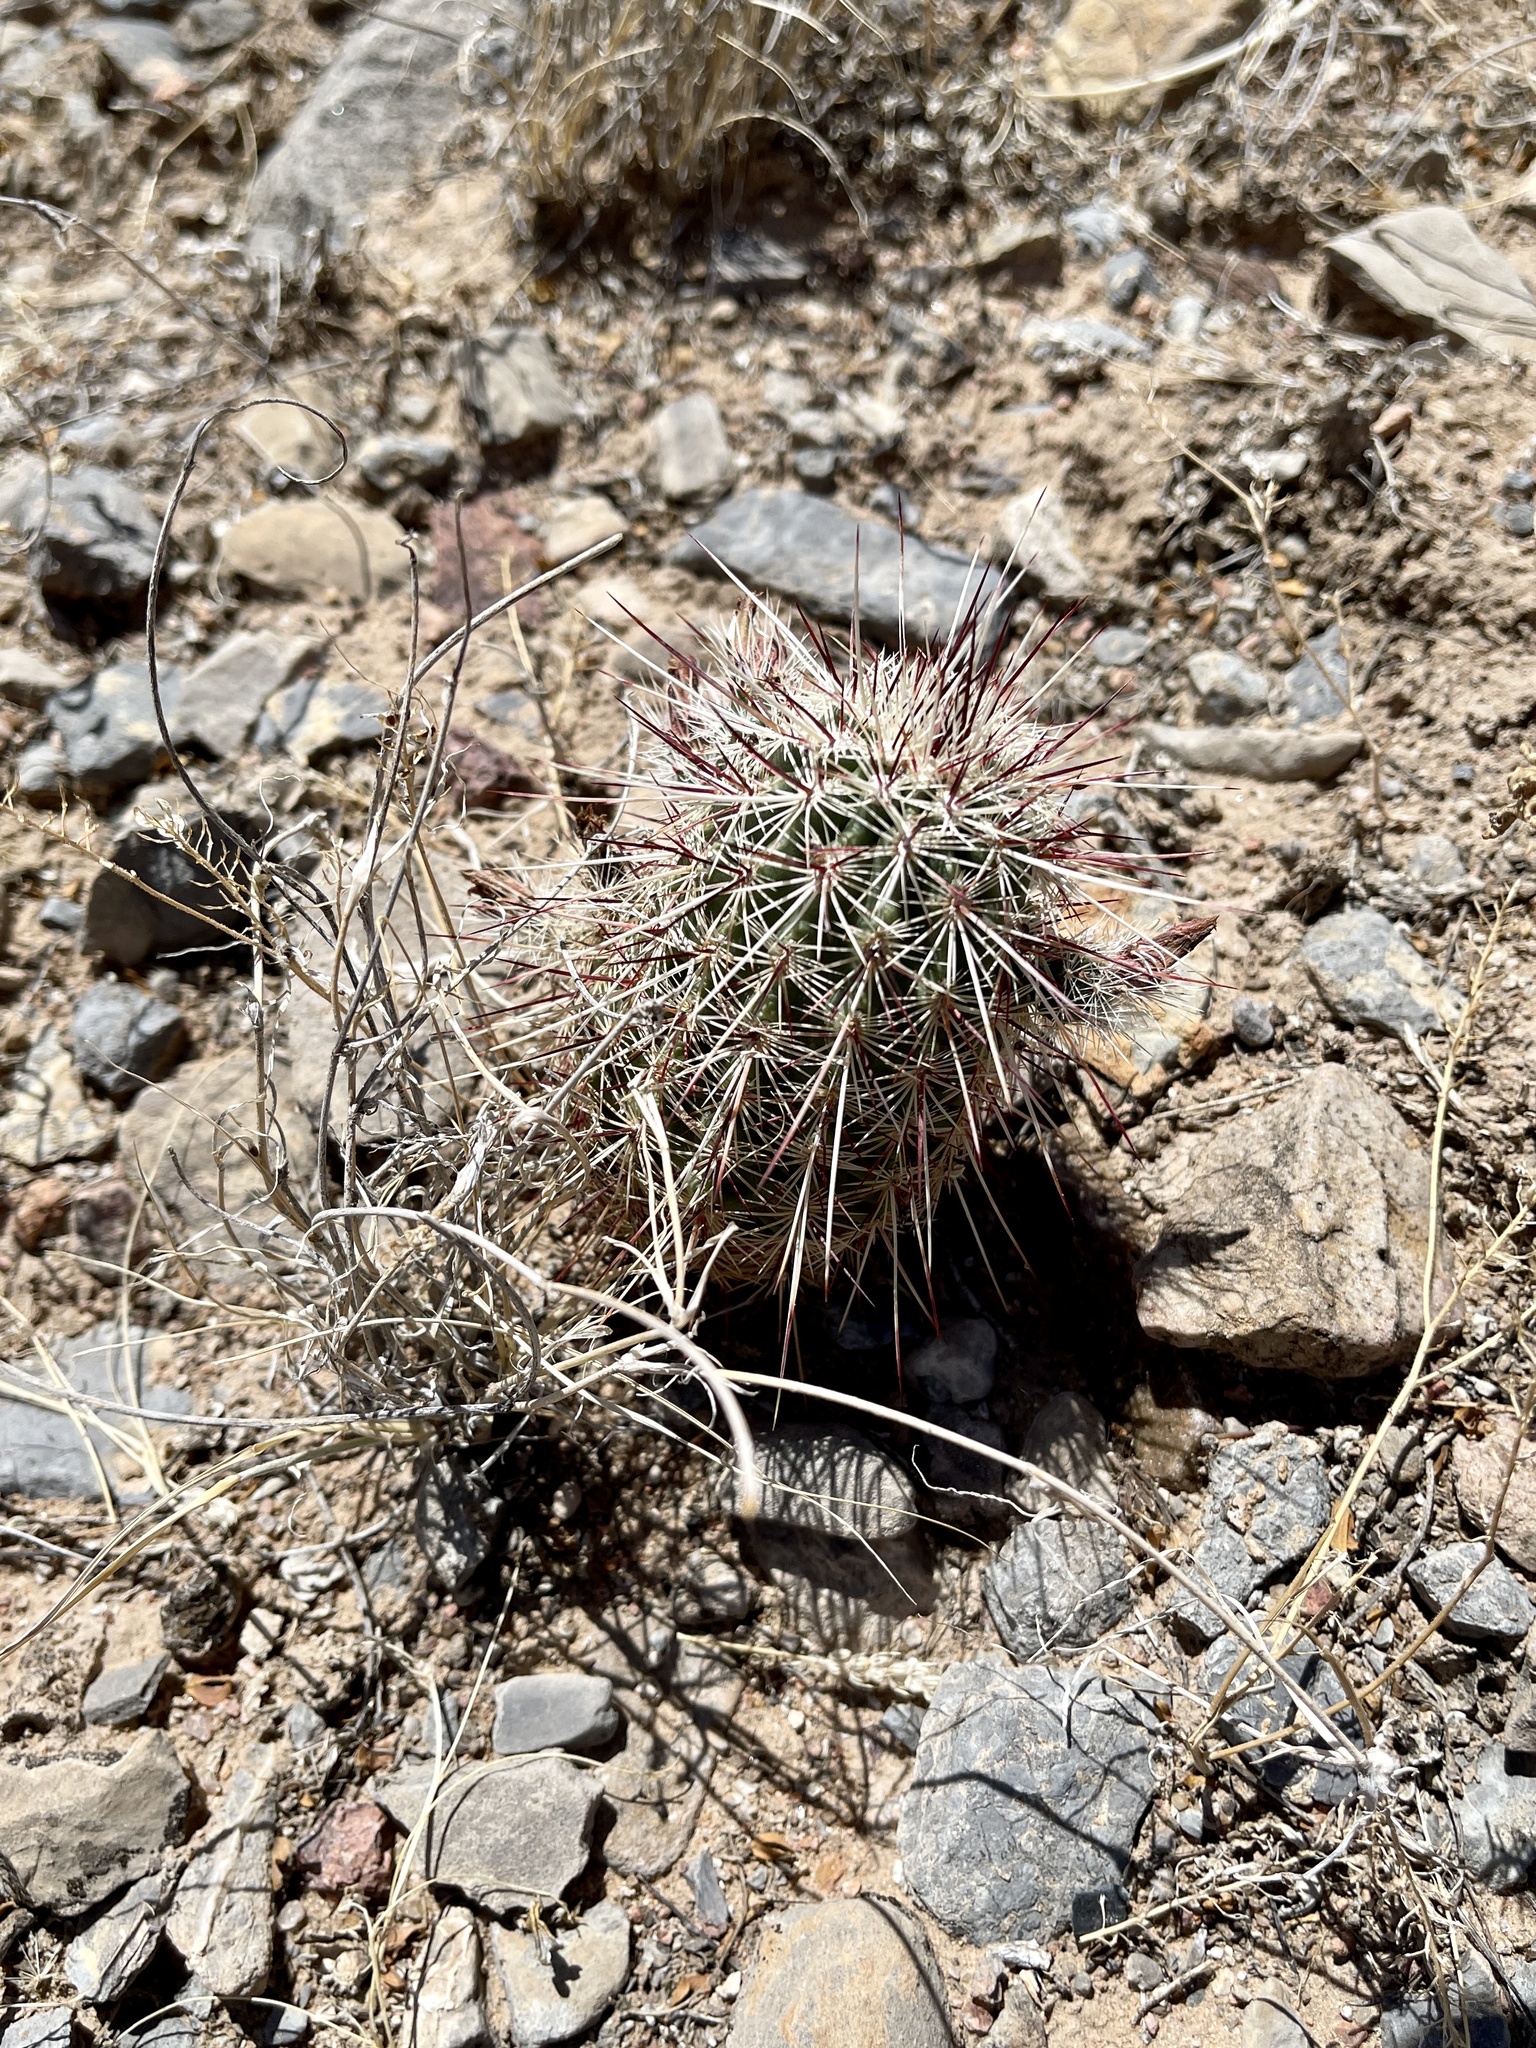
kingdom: Plantae
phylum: Tracheophyta
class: Magnoliopsida
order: Caryophyllales
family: Cactaceae
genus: Echinocereus
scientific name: Echinocereus viridiflorus
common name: Nylon hedgehog cactus
